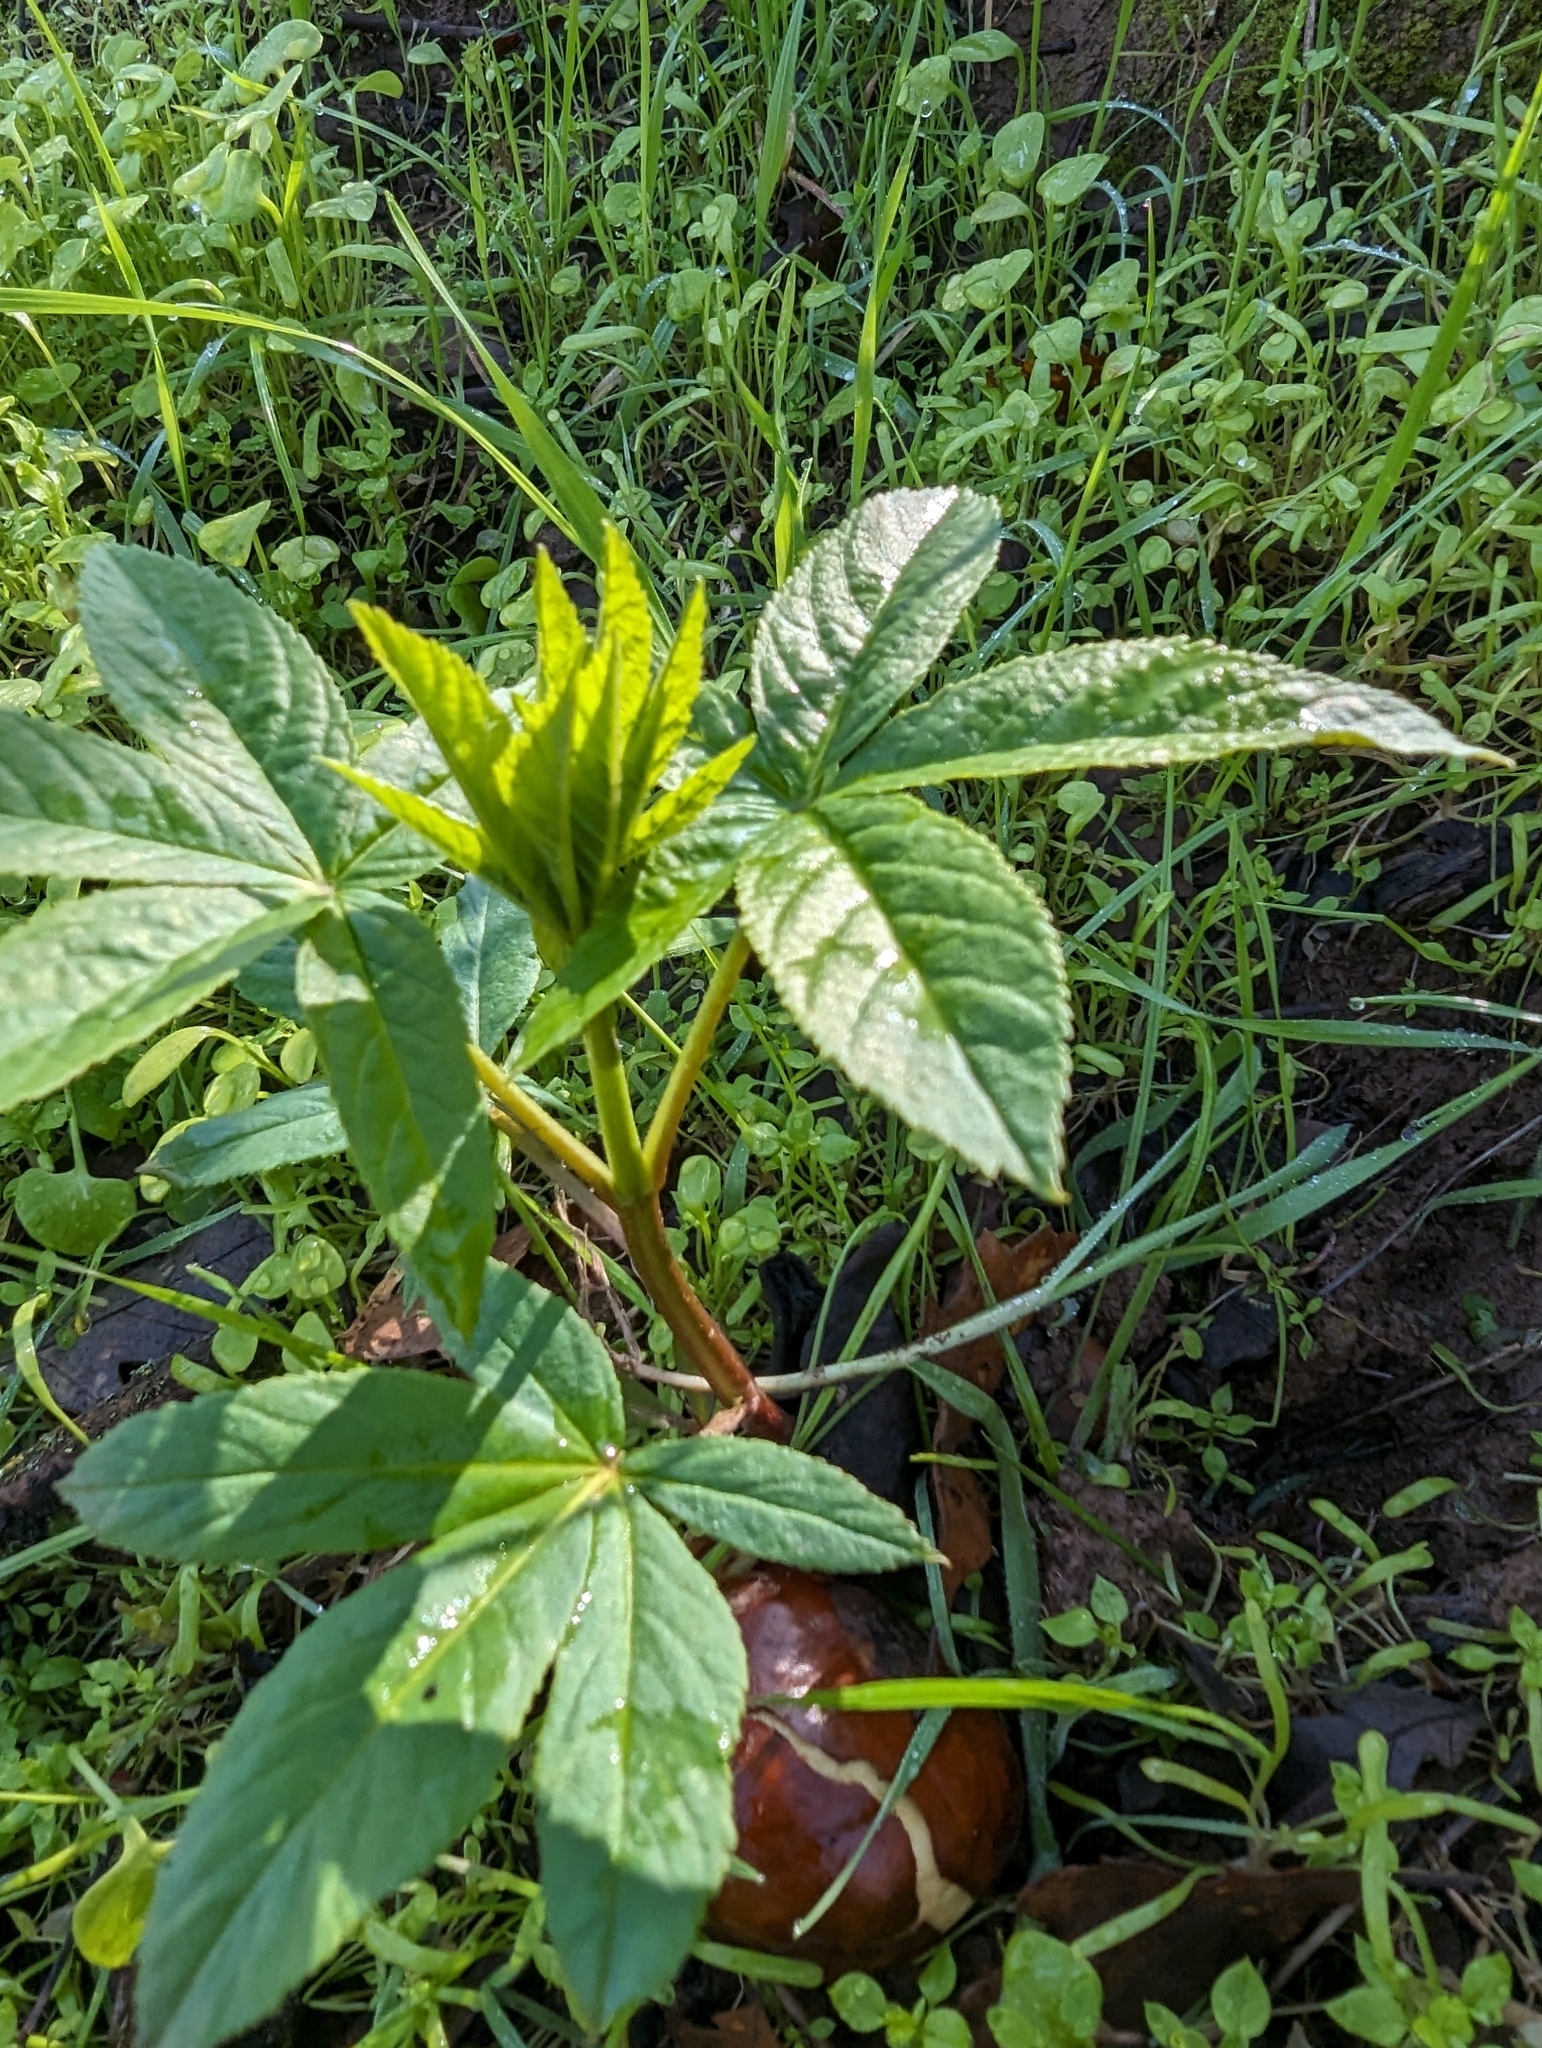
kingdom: Plantae
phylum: Tracheophyta
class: Magnoliopsida
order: Sapindales
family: Sapindaceae
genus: Aesculus
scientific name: Aesculus californica
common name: California buckeye
